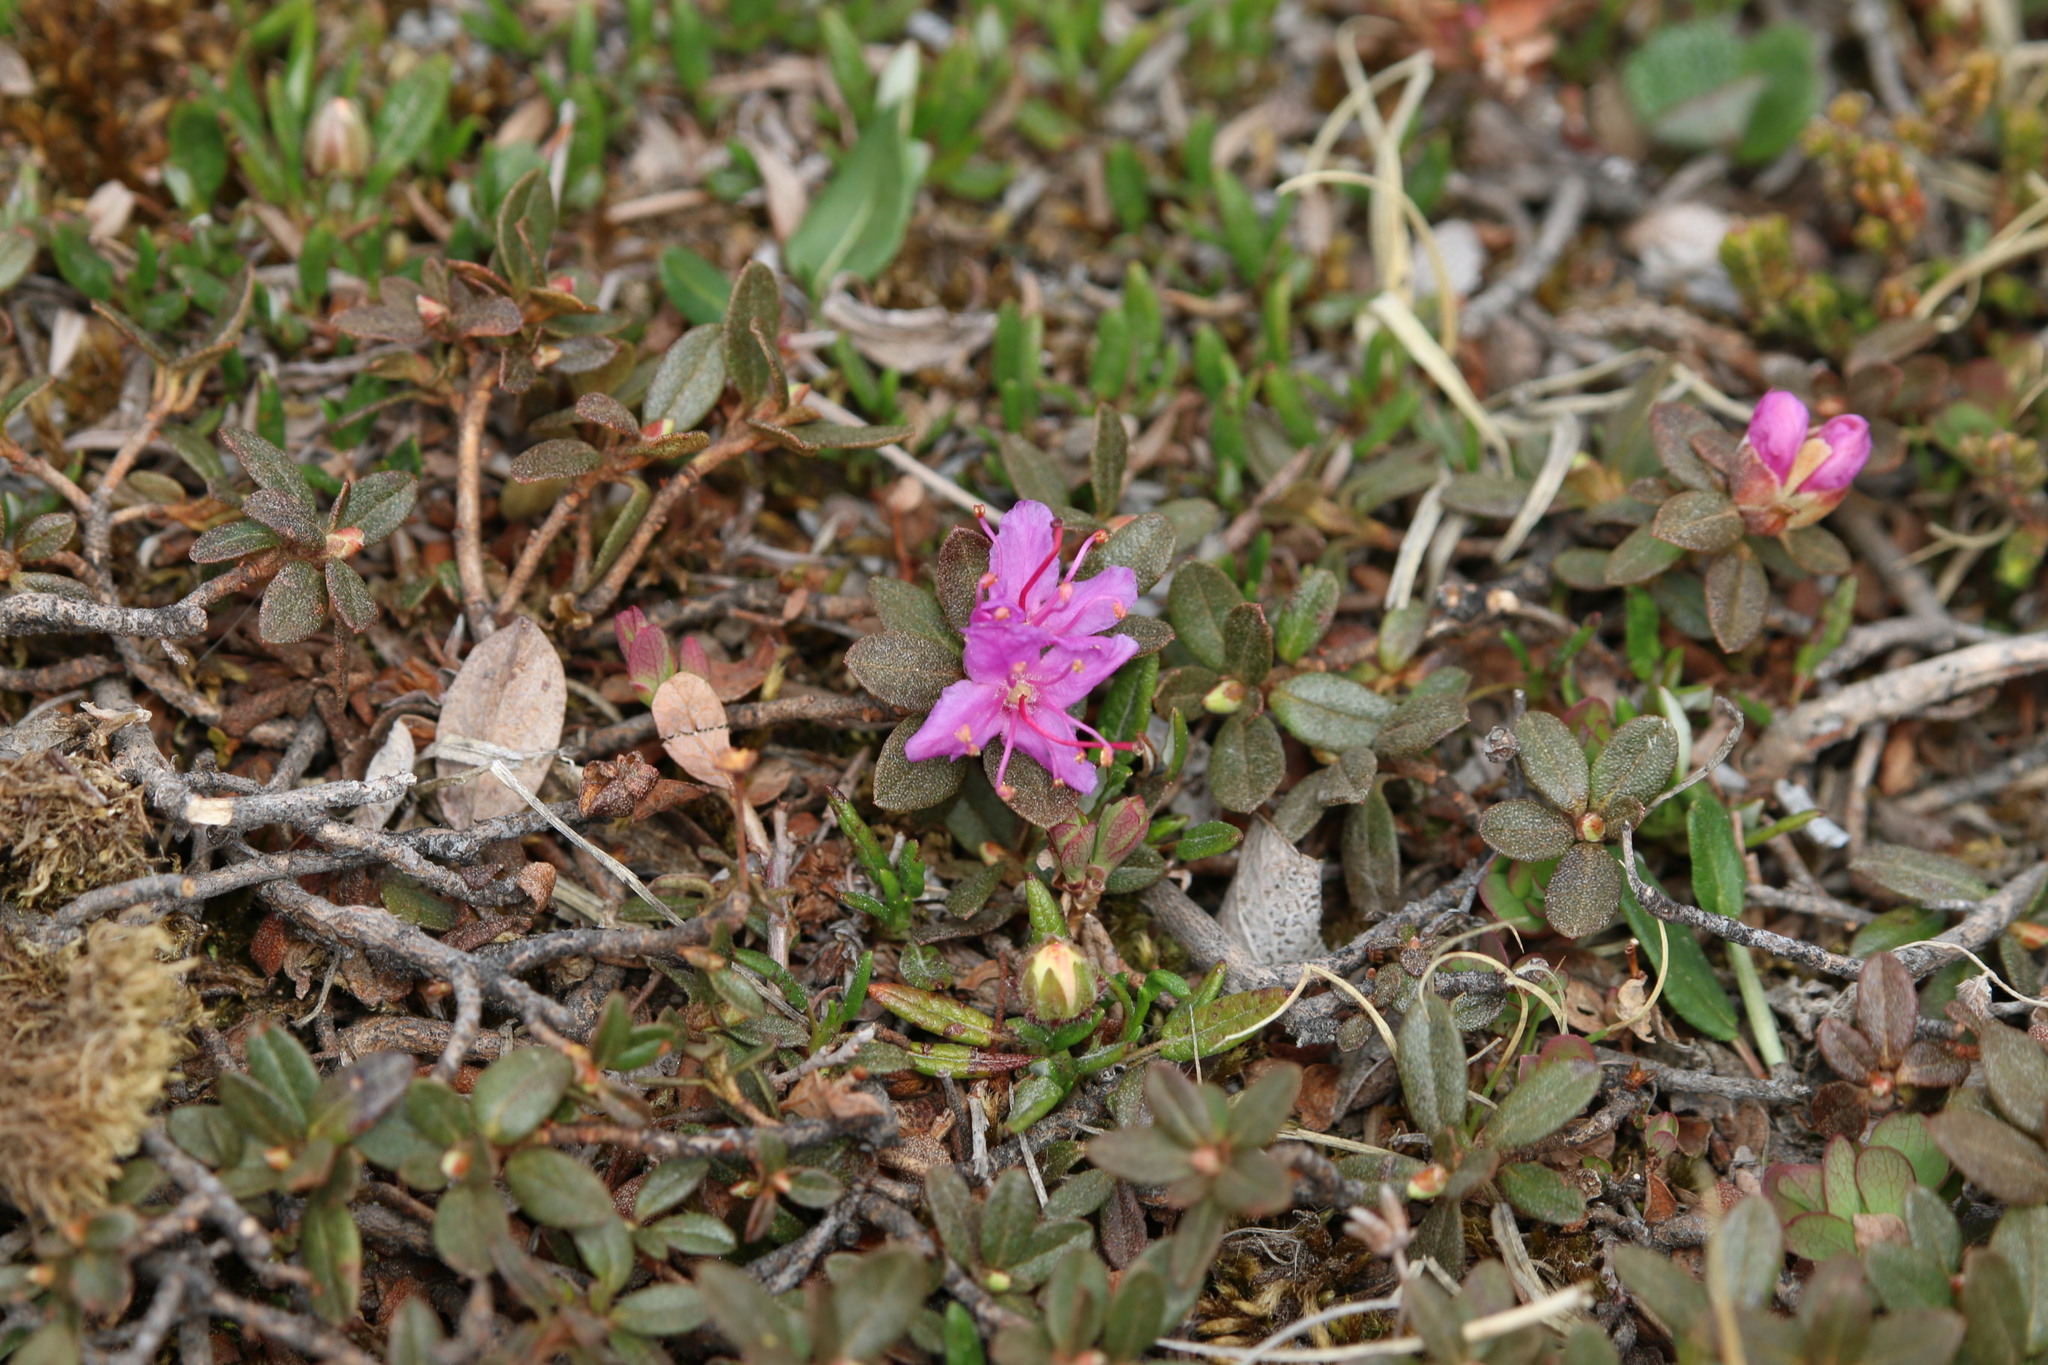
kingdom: Plantae
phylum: Tracheophyta
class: Magnoliopsida
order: Ericales
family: Ericaceae
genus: Rhododendron
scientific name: Rhododendron lapponicum
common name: Lapland rhododendron
